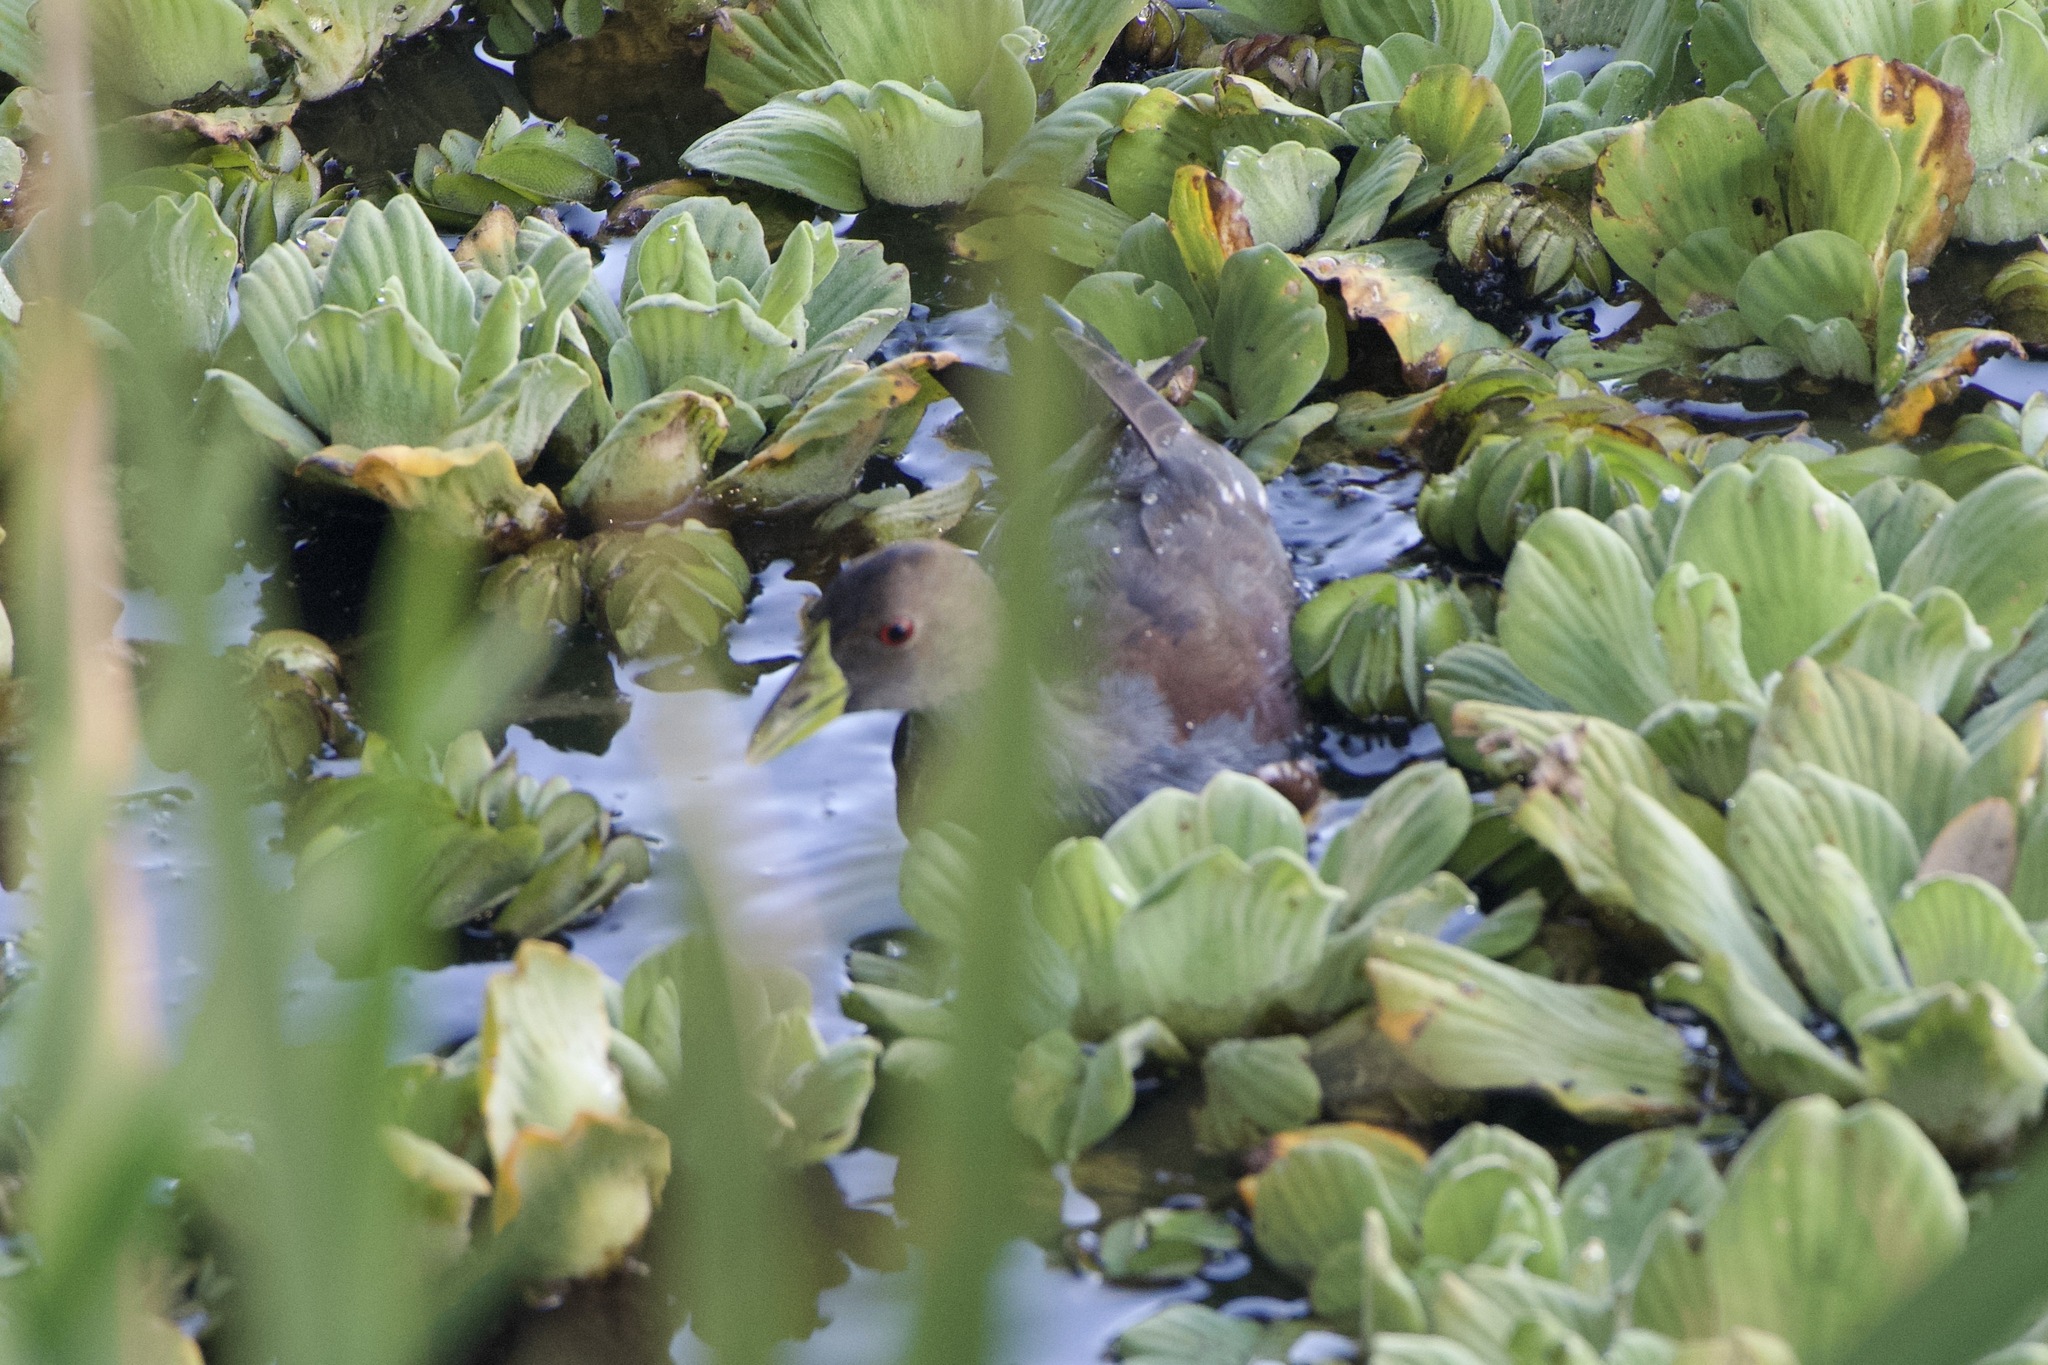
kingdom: Animalia
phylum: Chordata
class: Aves
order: Gruiformes
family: Rallidae
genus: Gallinula
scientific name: Gallinula melanops
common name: Spot-flanked gallinule
